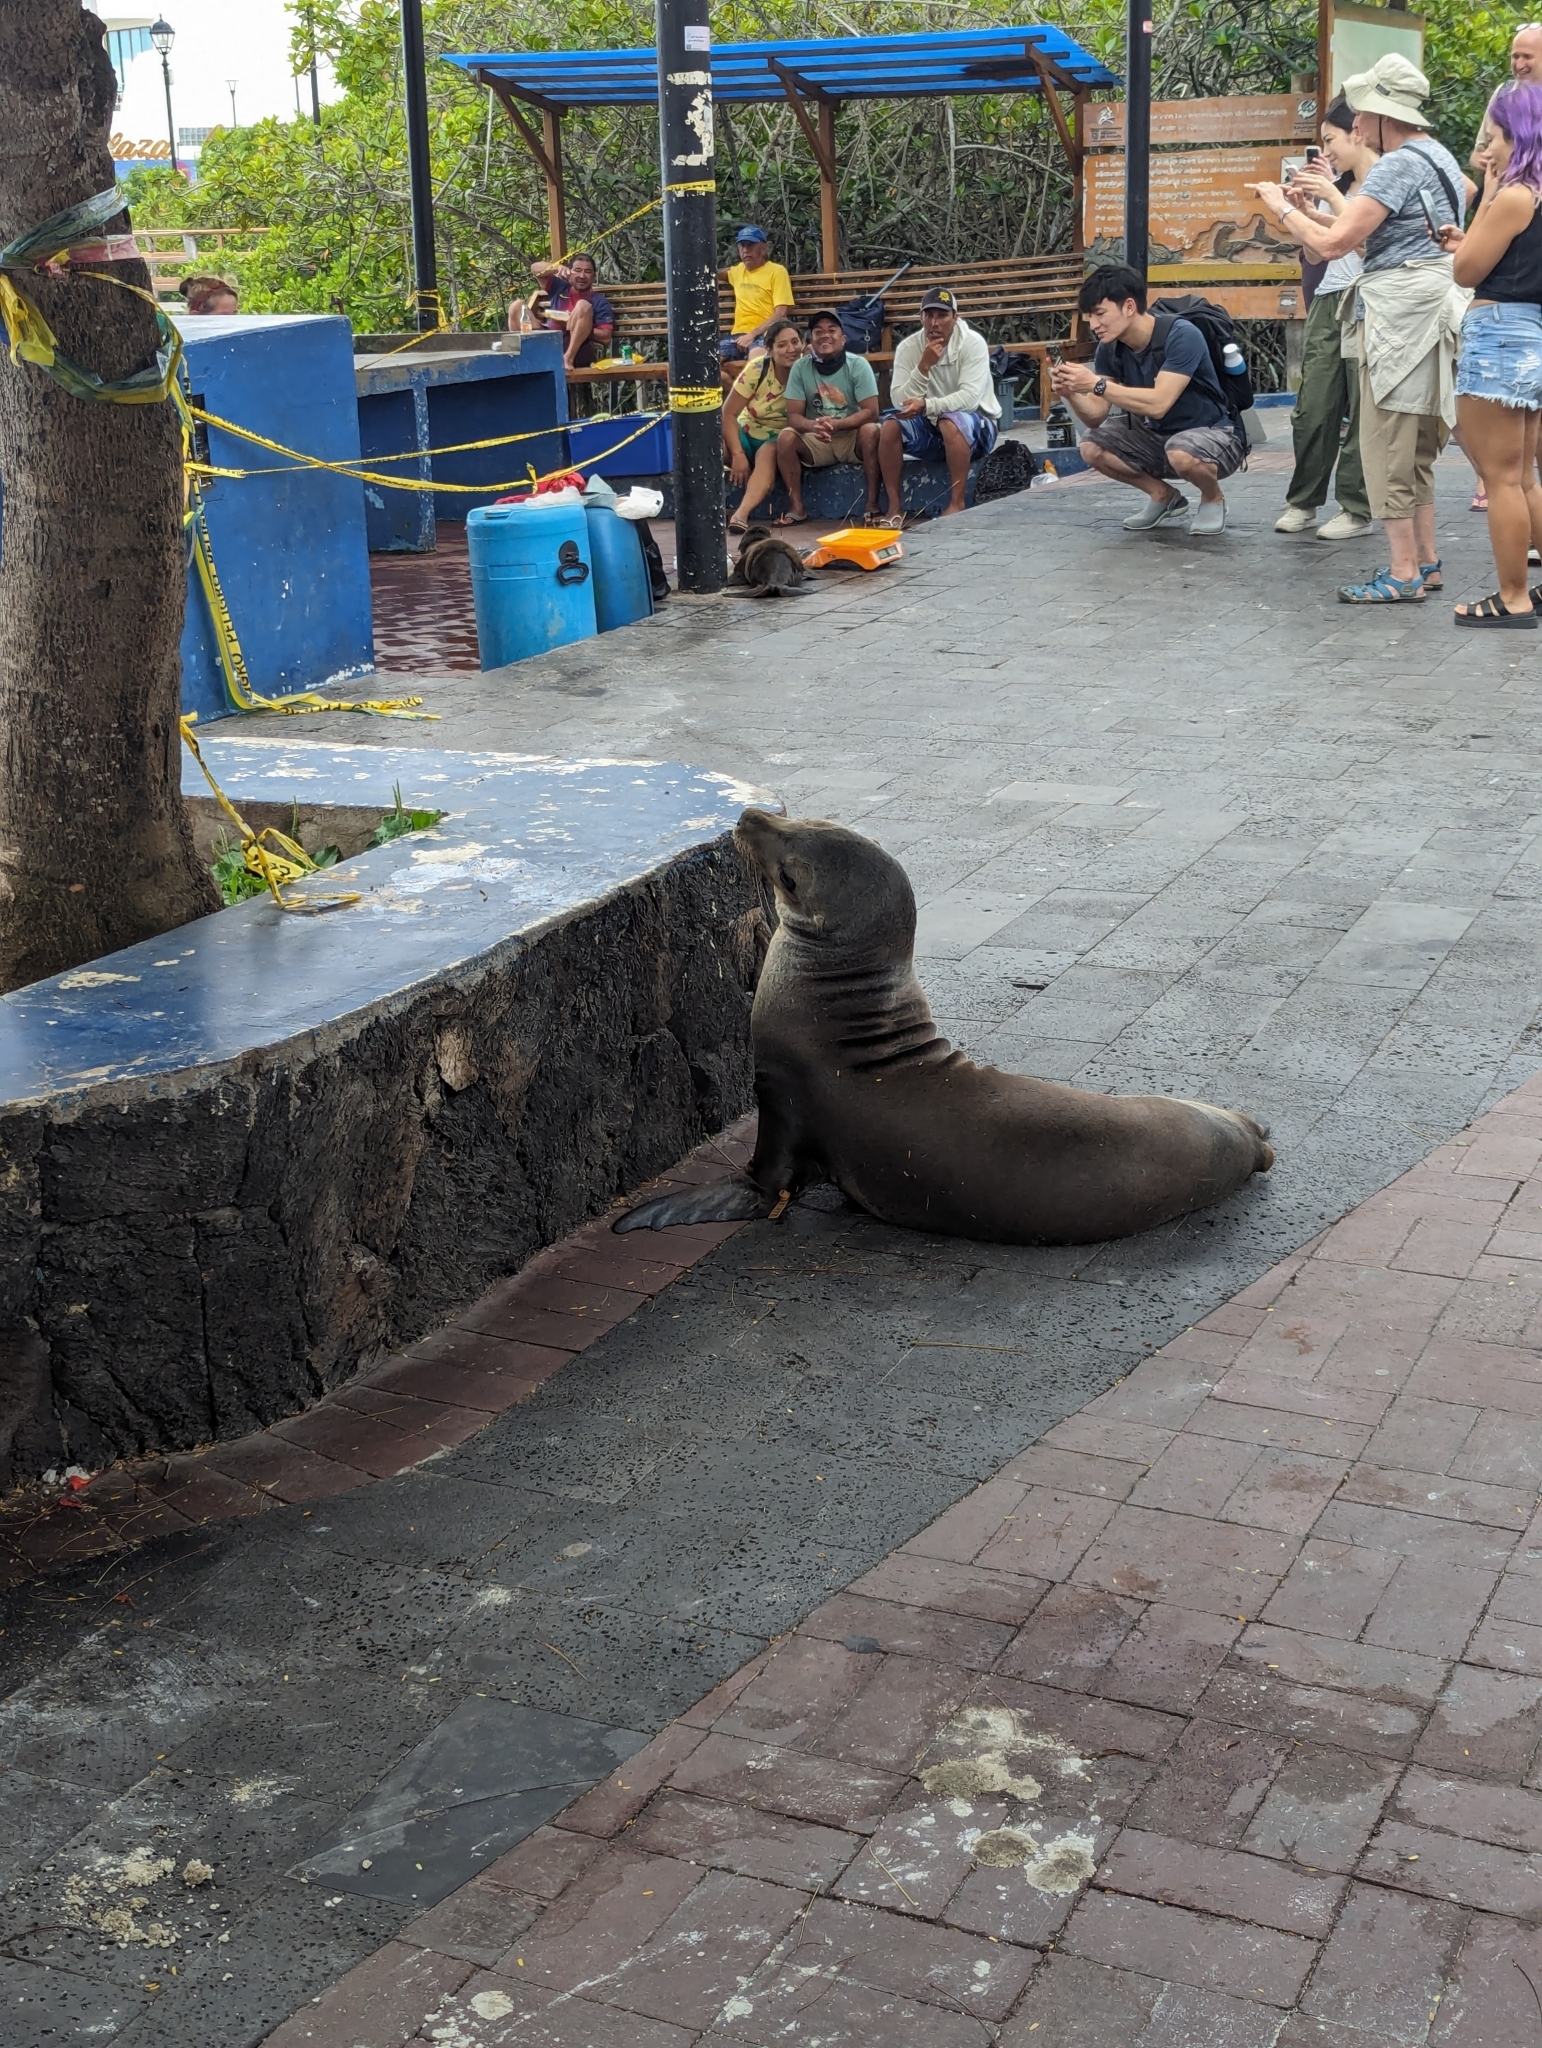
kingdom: Animalia
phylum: Chordata
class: Mammalia
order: Carnivora
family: Otariidae
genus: Zalophus
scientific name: Zalophus wollebaeki
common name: Galapagos sea lion
